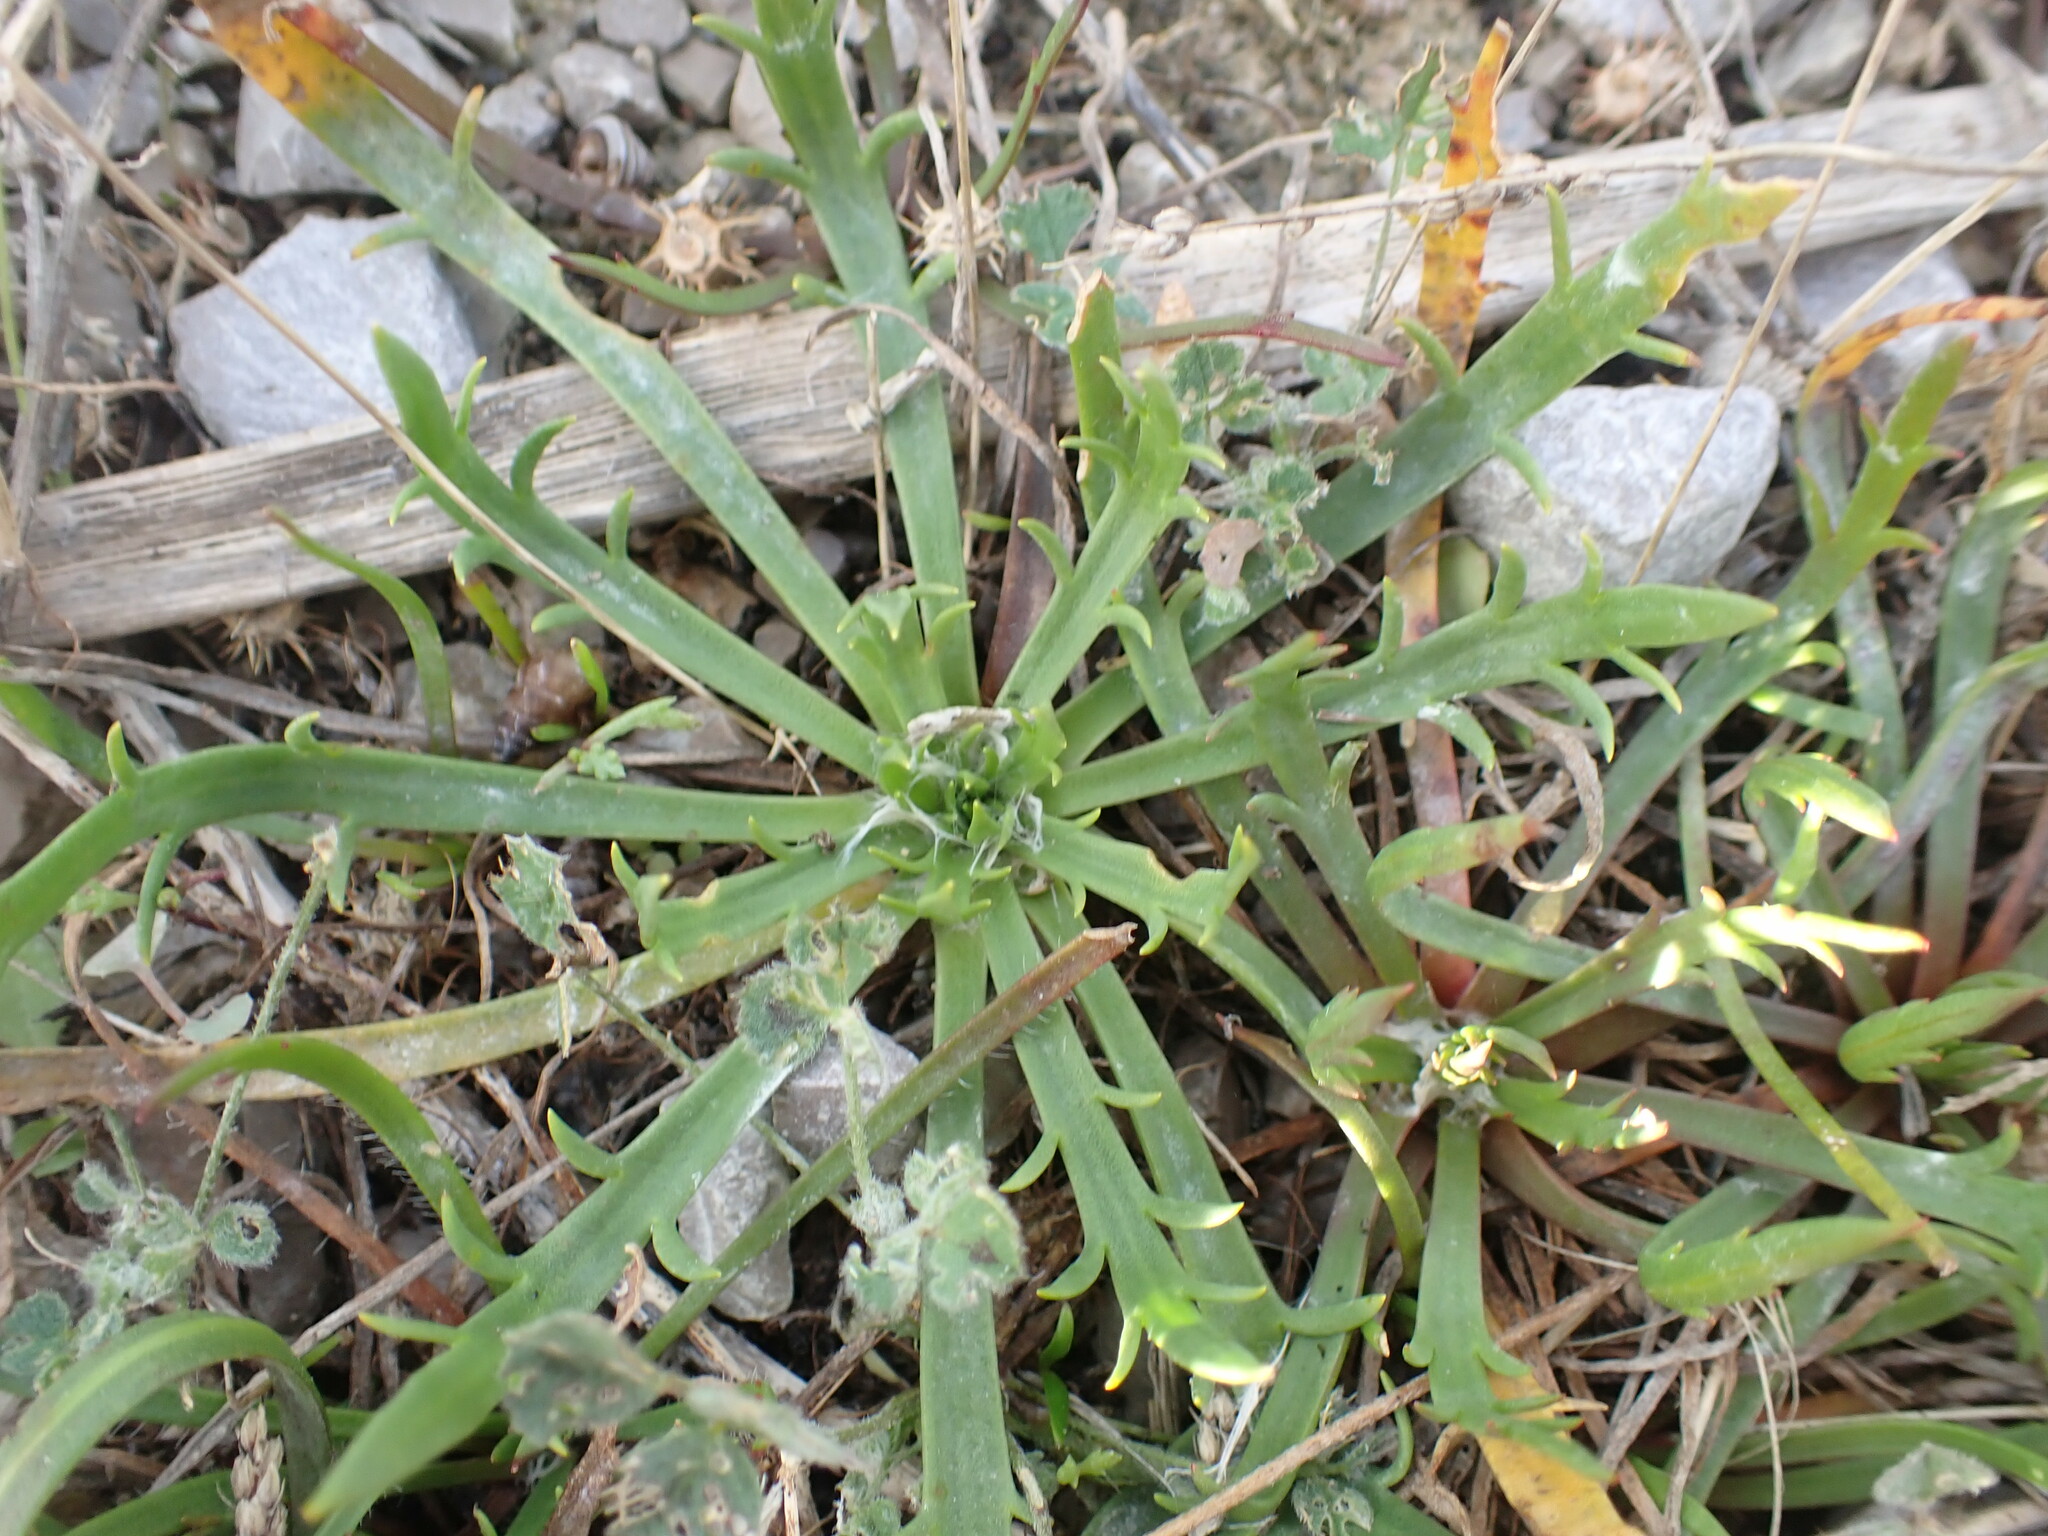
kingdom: Plantae
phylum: Tracheophyta
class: Magnoliopsida
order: Lamiales
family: Plantaginaceae
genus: Plantago
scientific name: Plantago coronopus
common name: Buck's-horn plantain
